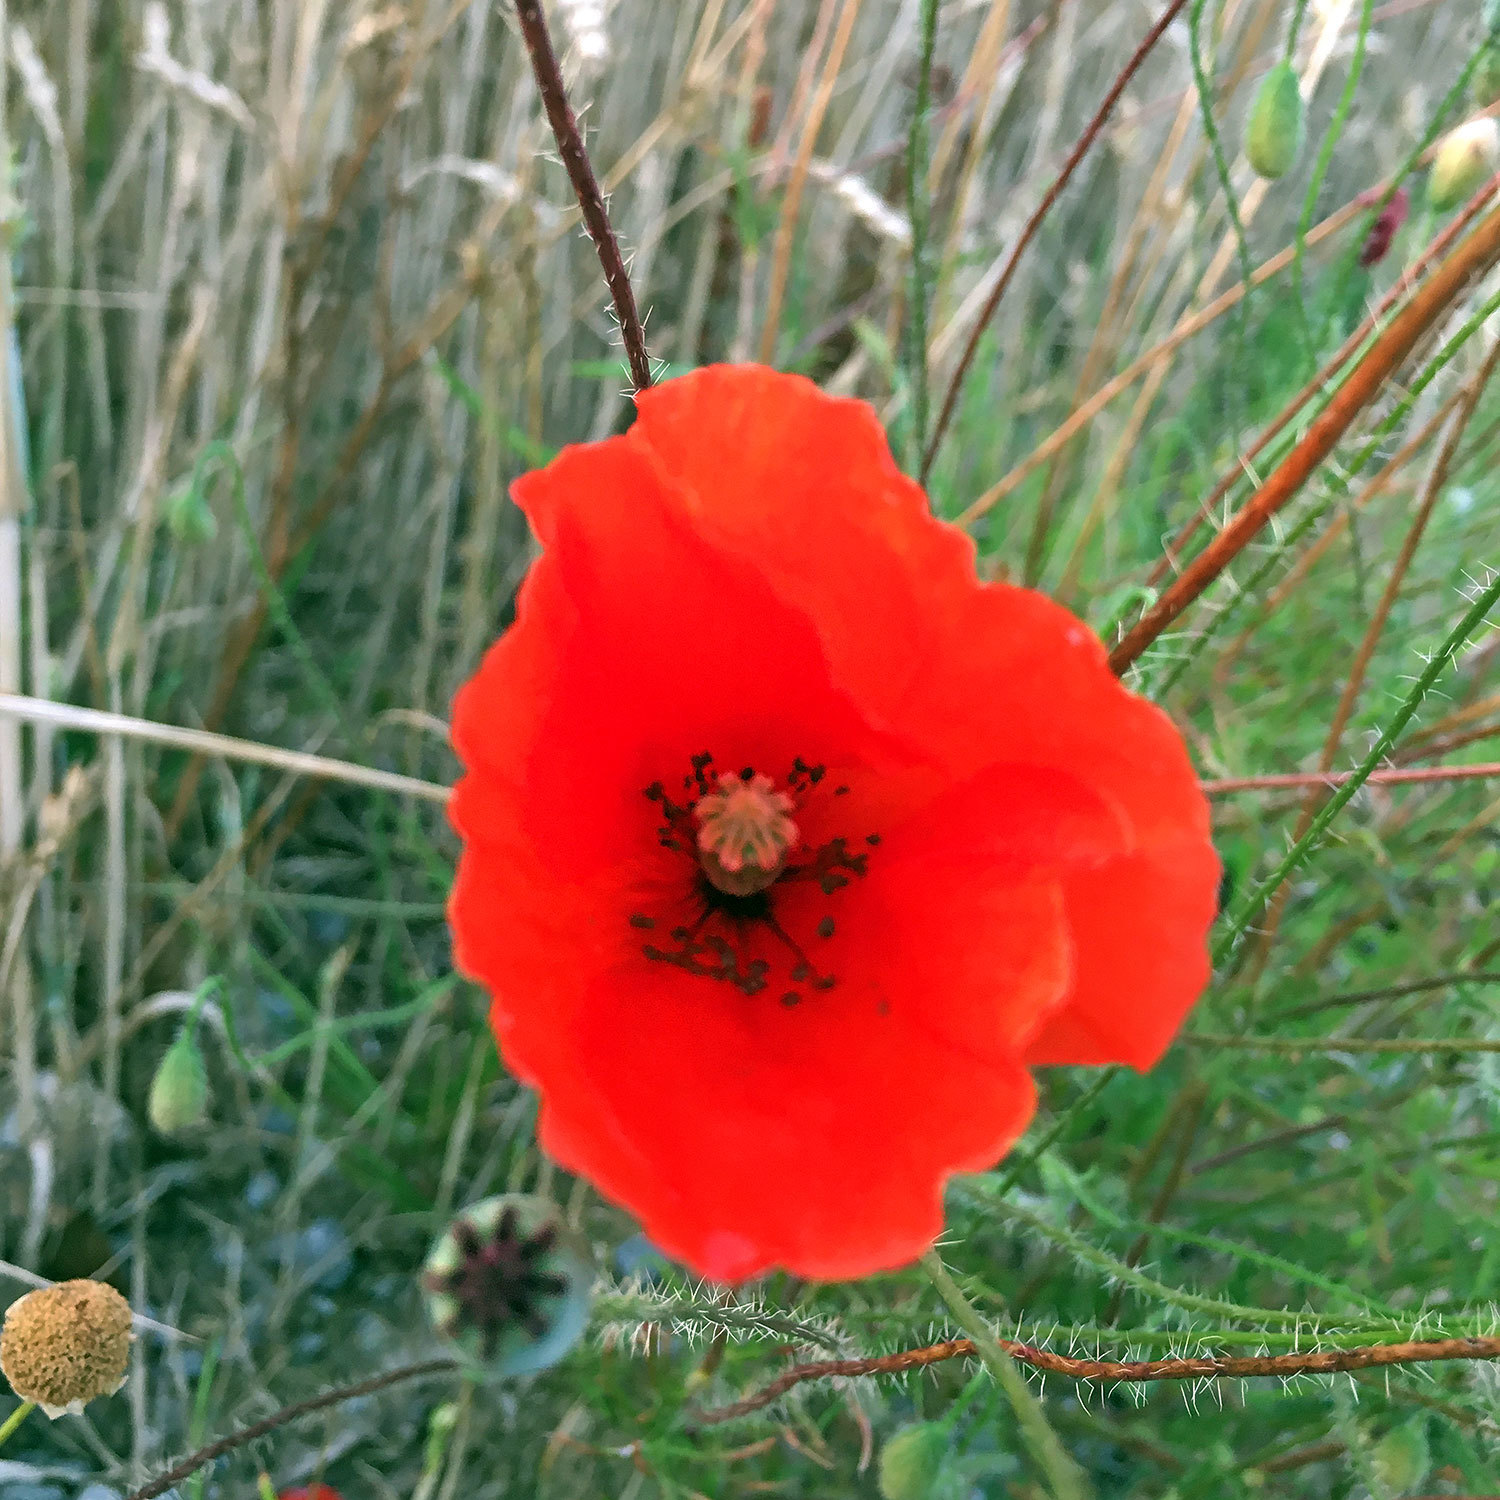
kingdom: Plantae
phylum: Tracheophyta
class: Magnoliopsida
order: Ranunculales
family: Papaveraceae
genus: Papaver
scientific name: Papaver rhoeas
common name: Corn poppy
